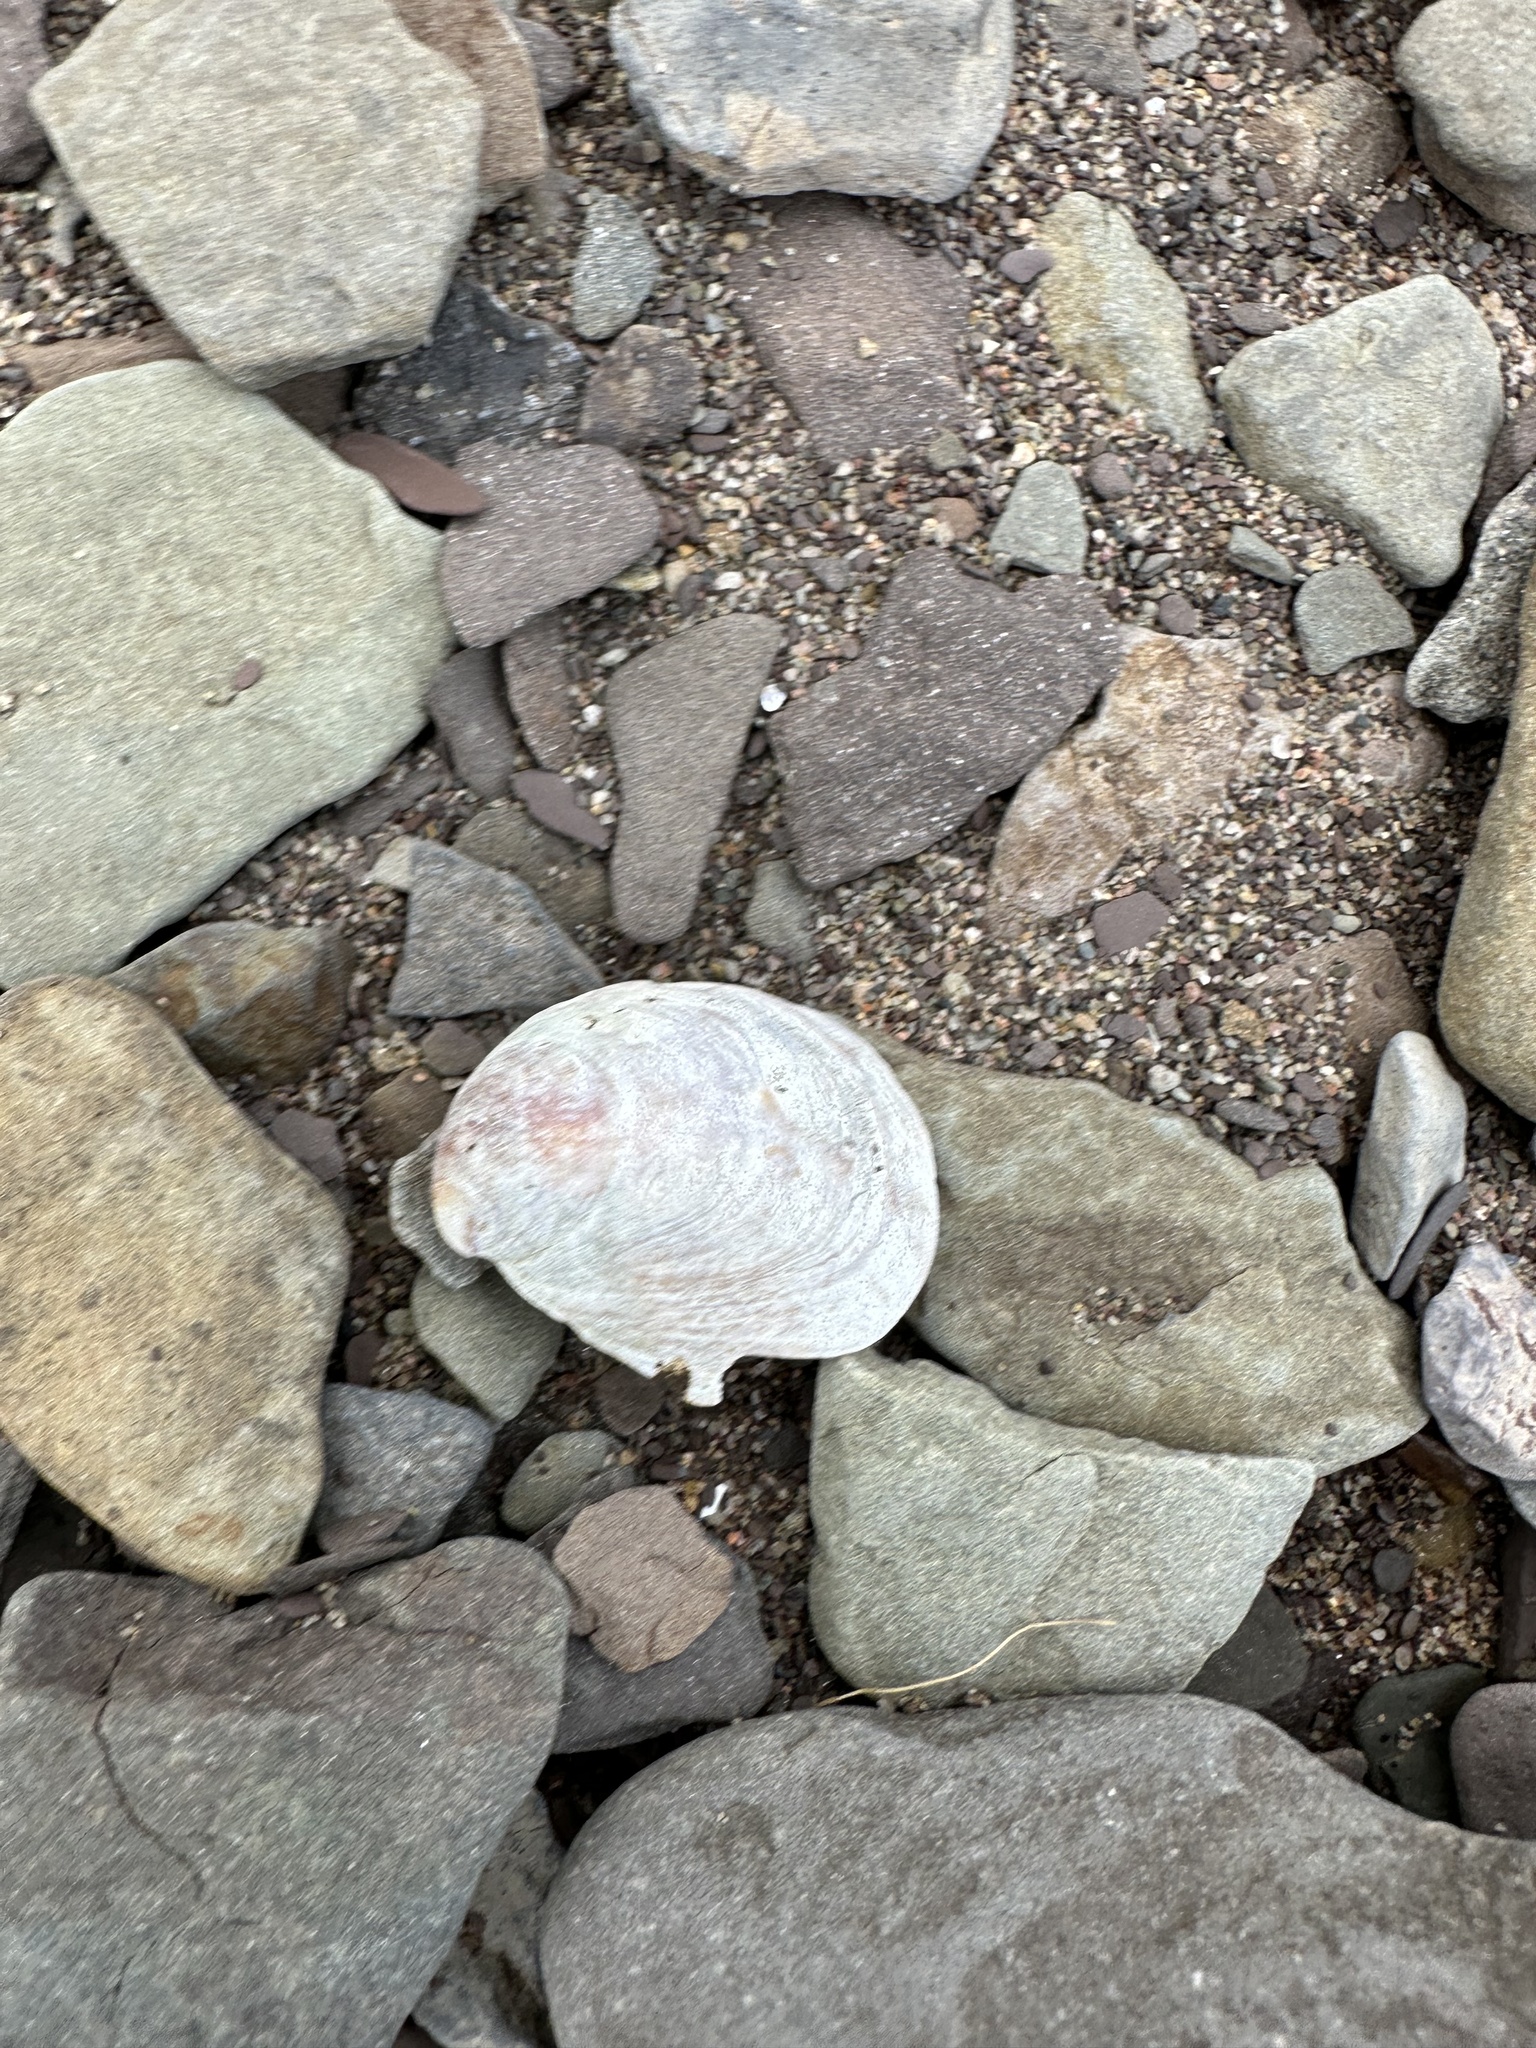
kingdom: Animalia
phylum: Mollusca
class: Gastropoda
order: Littorinimorpha
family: Calyptraeidae
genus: Crepidula
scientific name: Crepidula fornicata
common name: Slipper limpet
